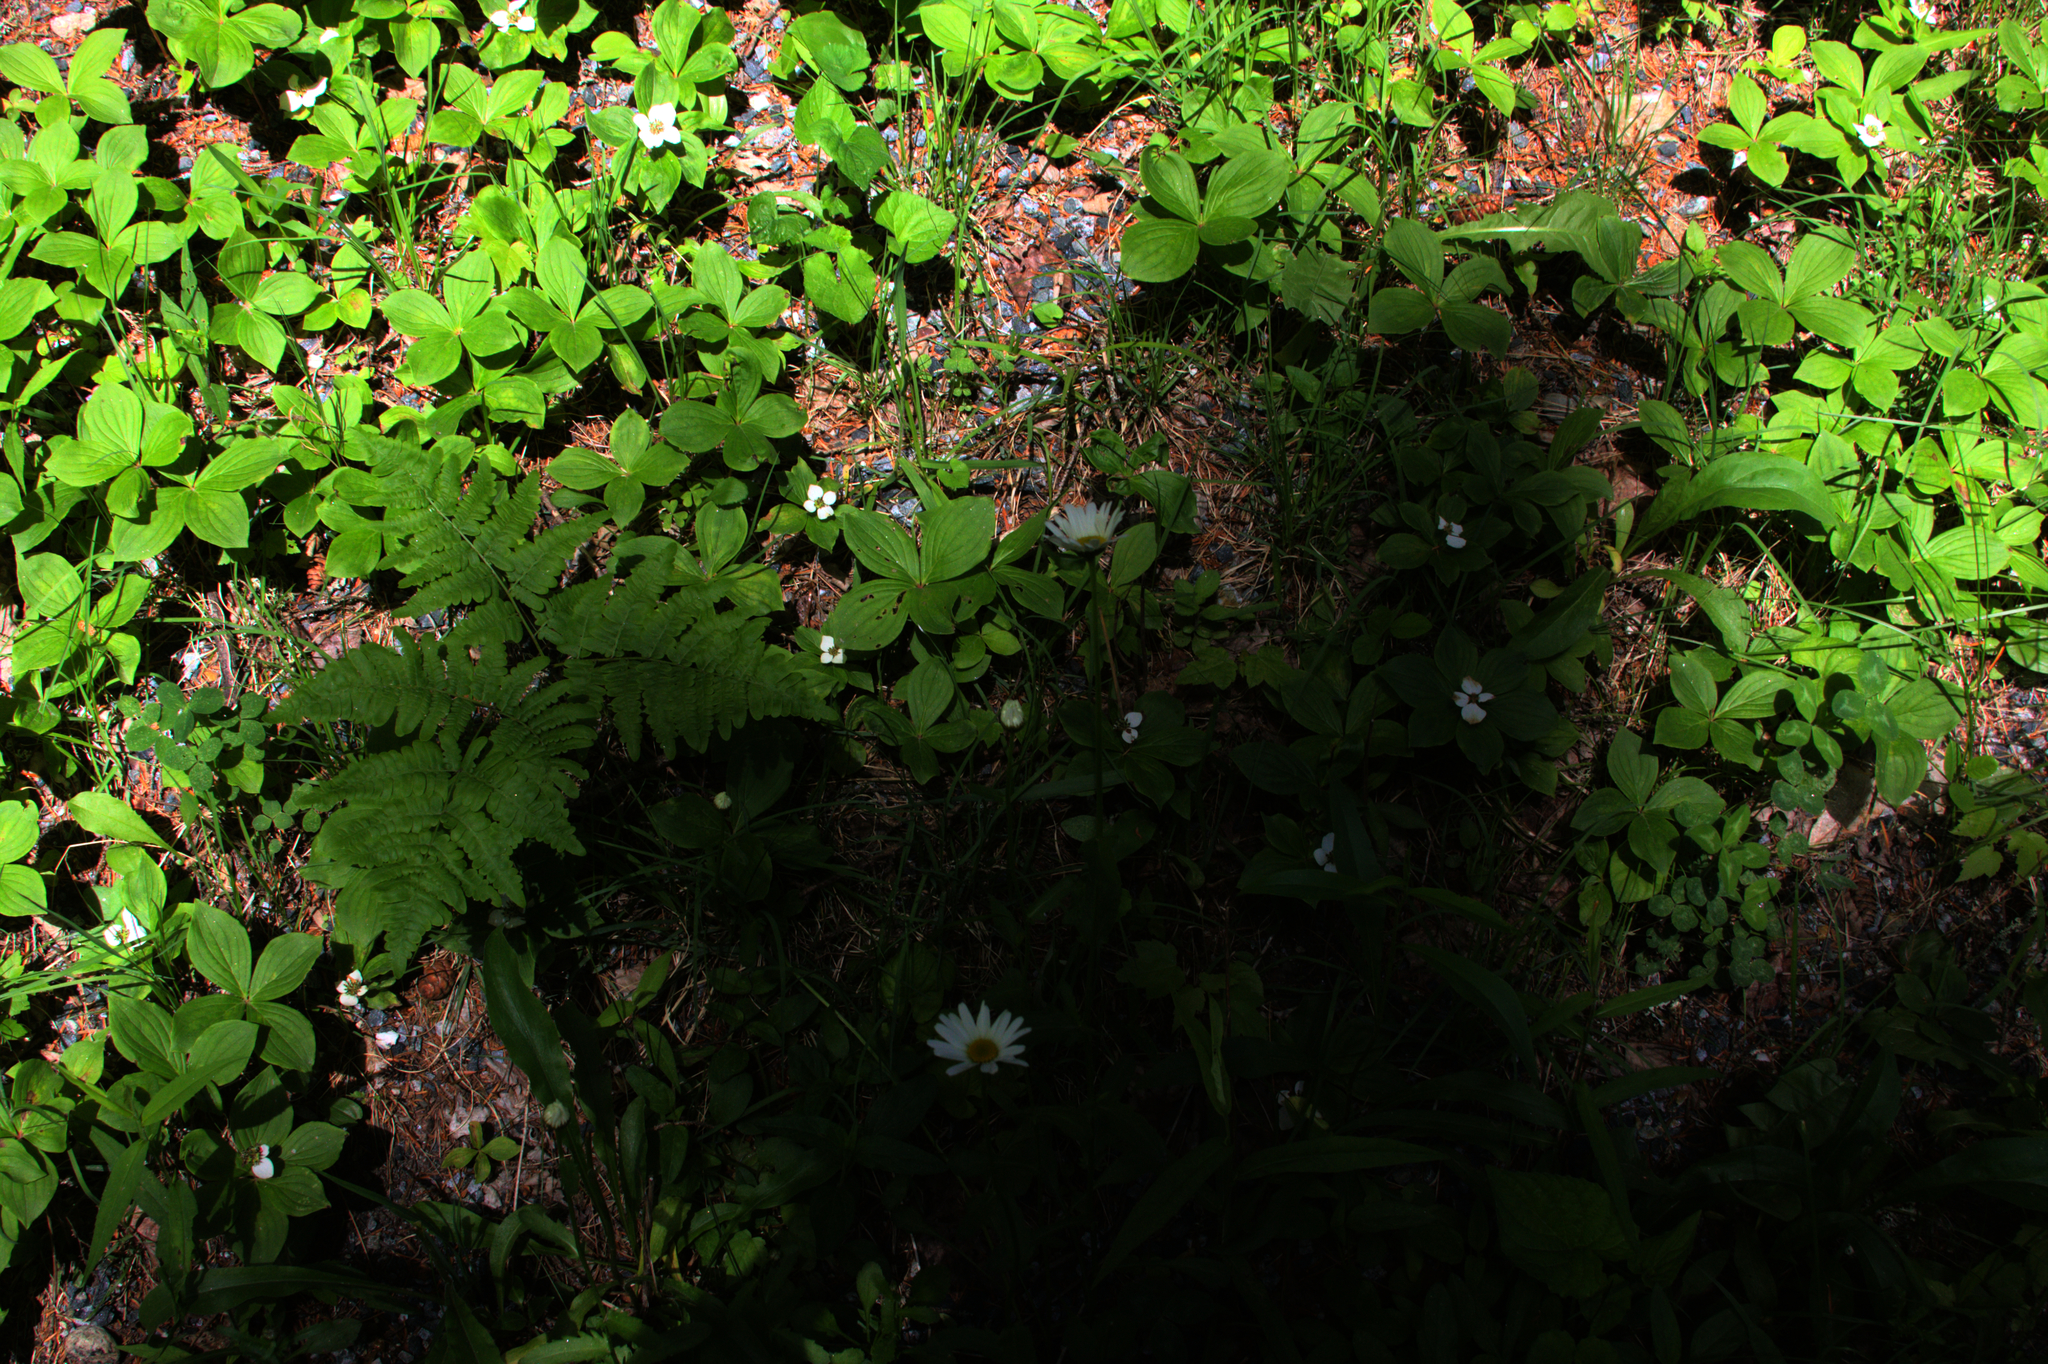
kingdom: Plantae
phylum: Tracheophyta
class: Polypodiopsida
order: Polypodiales
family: Dennstaedtiaceae
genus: Pteridium
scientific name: Pteridium aquilinum
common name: Bracken
